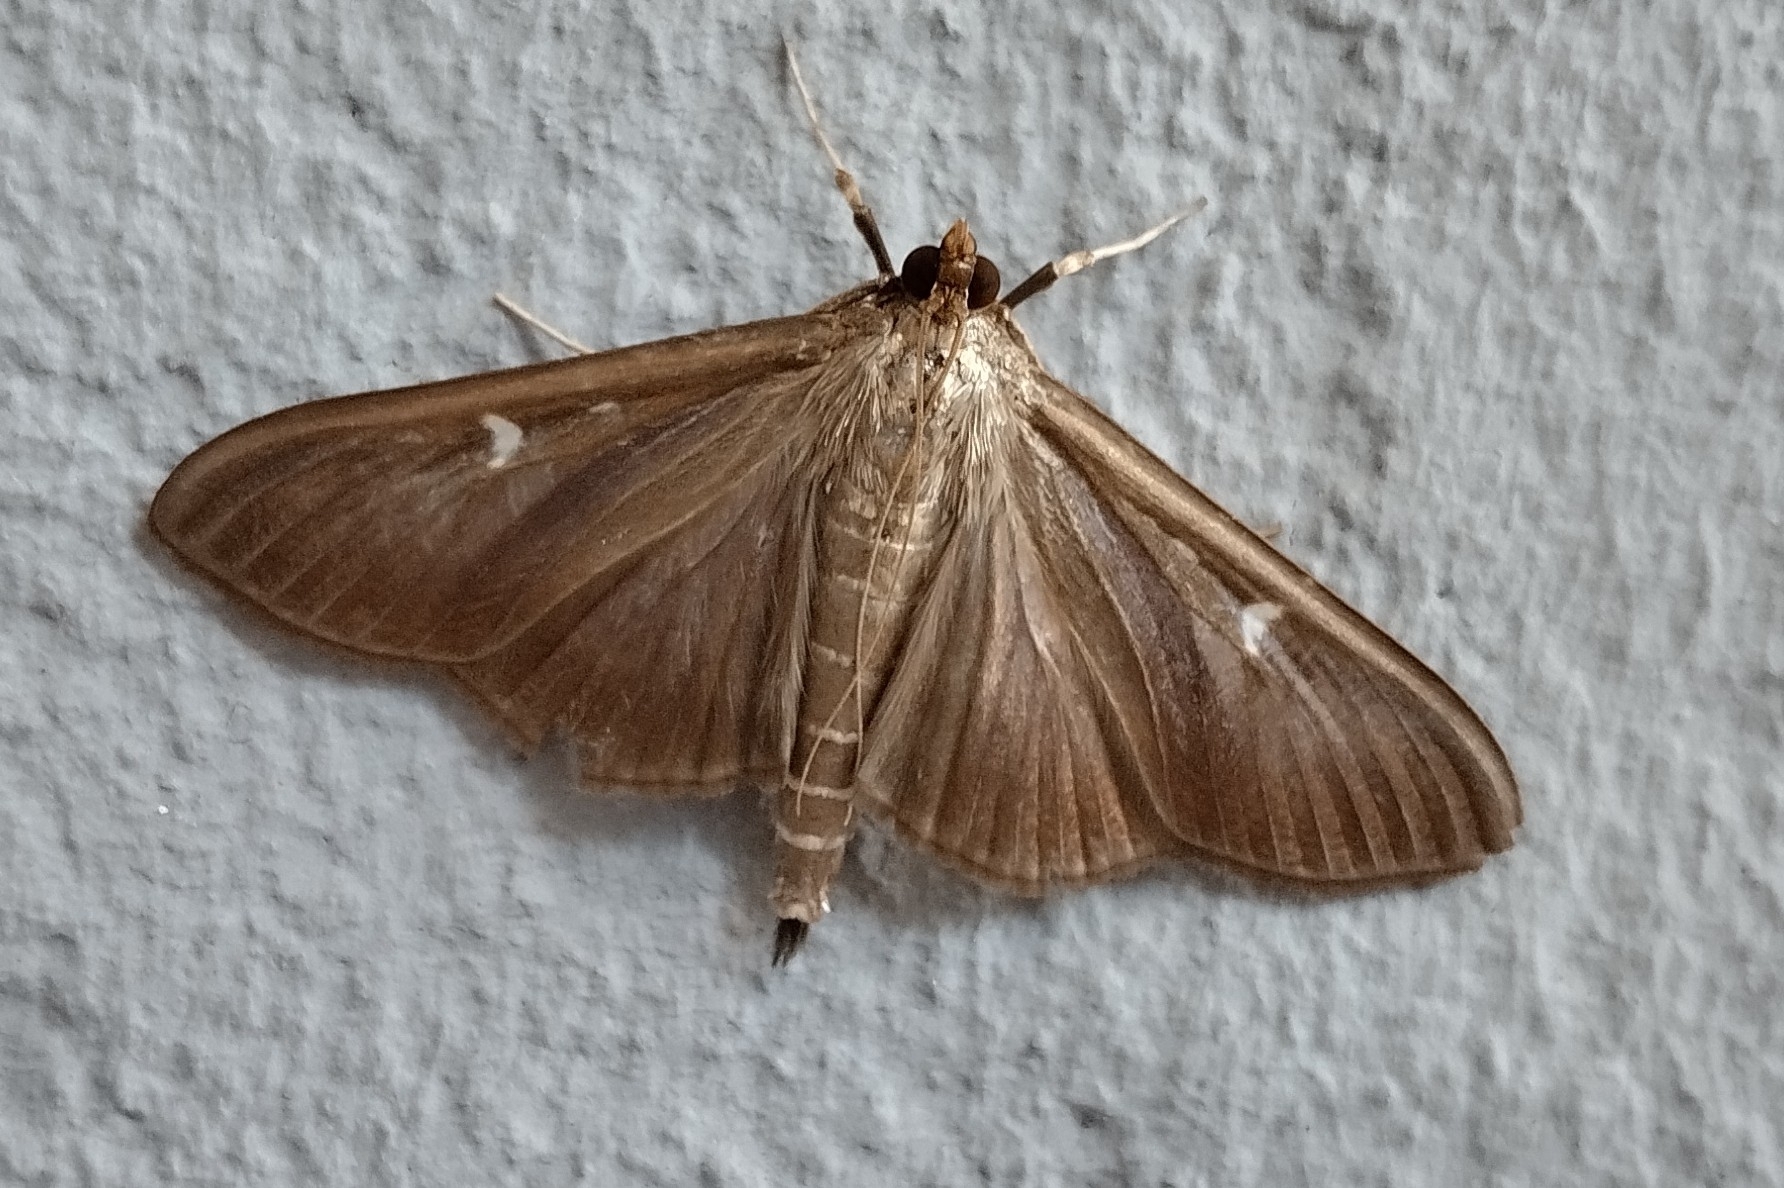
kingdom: Animalia
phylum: Arthropoda
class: Insecta
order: Lepidoptera
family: Crambidae
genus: Cydalima
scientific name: Cydalima perspectalis
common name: Box tree moth
